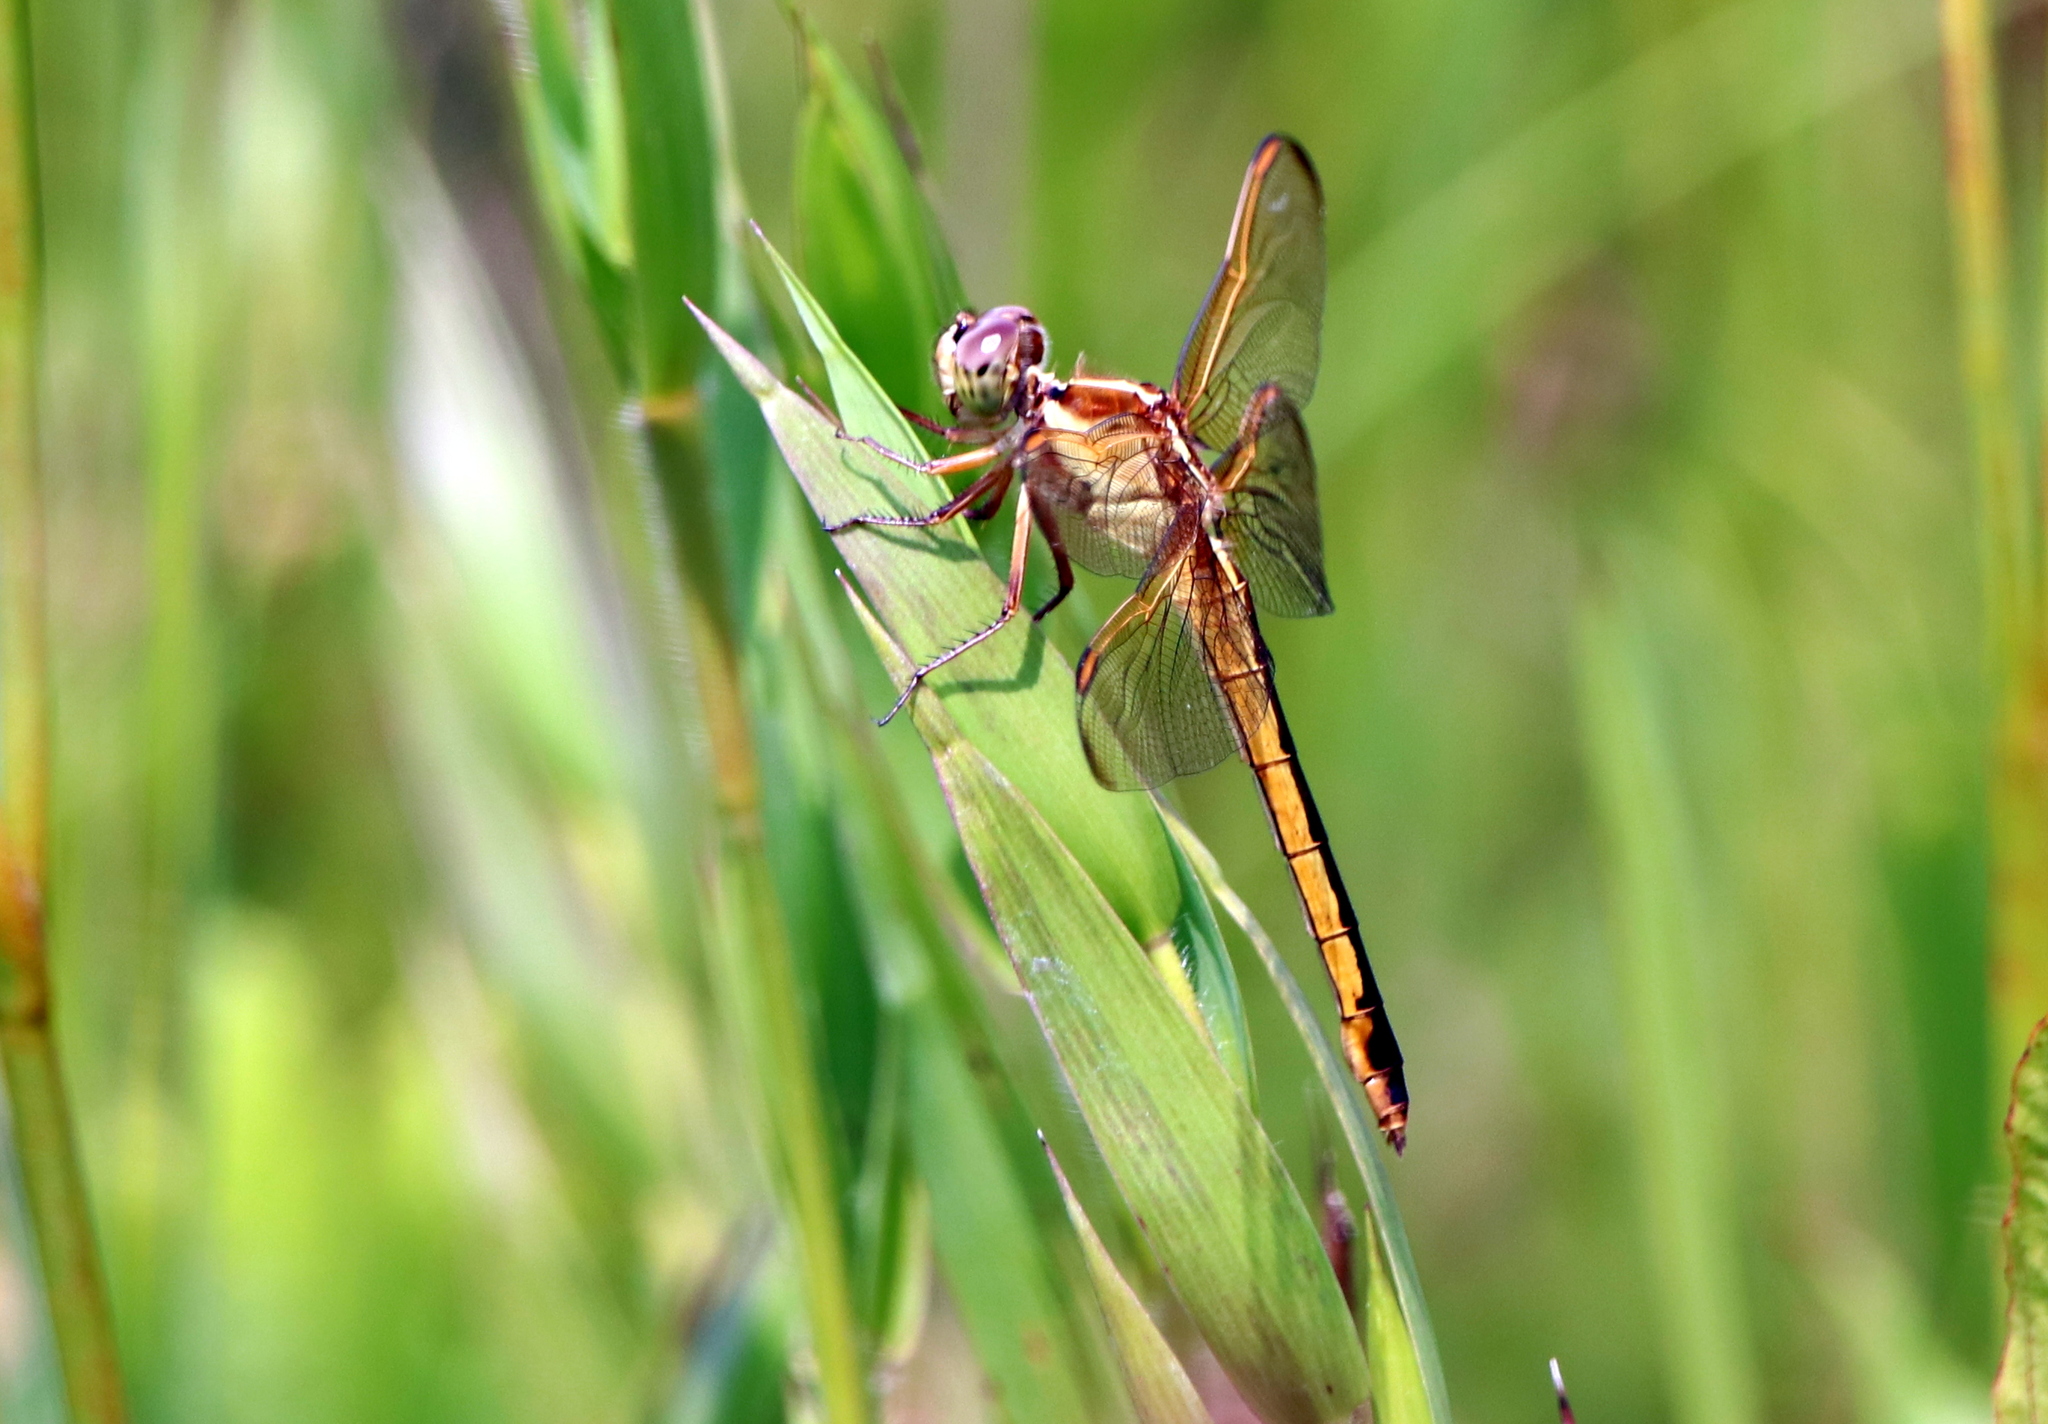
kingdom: Animalia
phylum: Arthropoda
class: Insecta
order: Odonata
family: Libellulidae
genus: Libellula
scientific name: Libellula needhami
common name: Needham's skimmer
